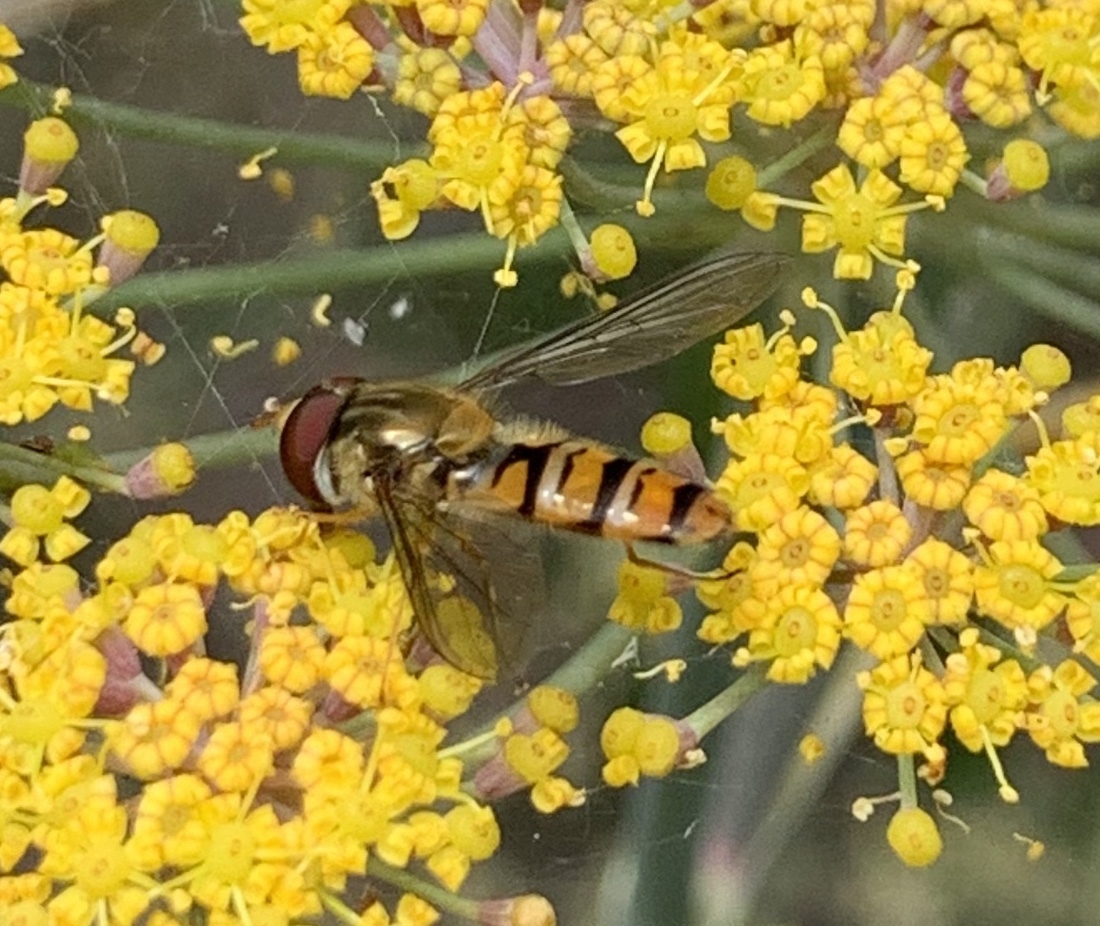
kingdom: Animalia
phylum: Arthropoda
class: Insecta
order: Diptera
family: Syrphidae
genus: Episyrphus
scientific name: Episyrphus balteatus
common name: Marmalade hoverfly
